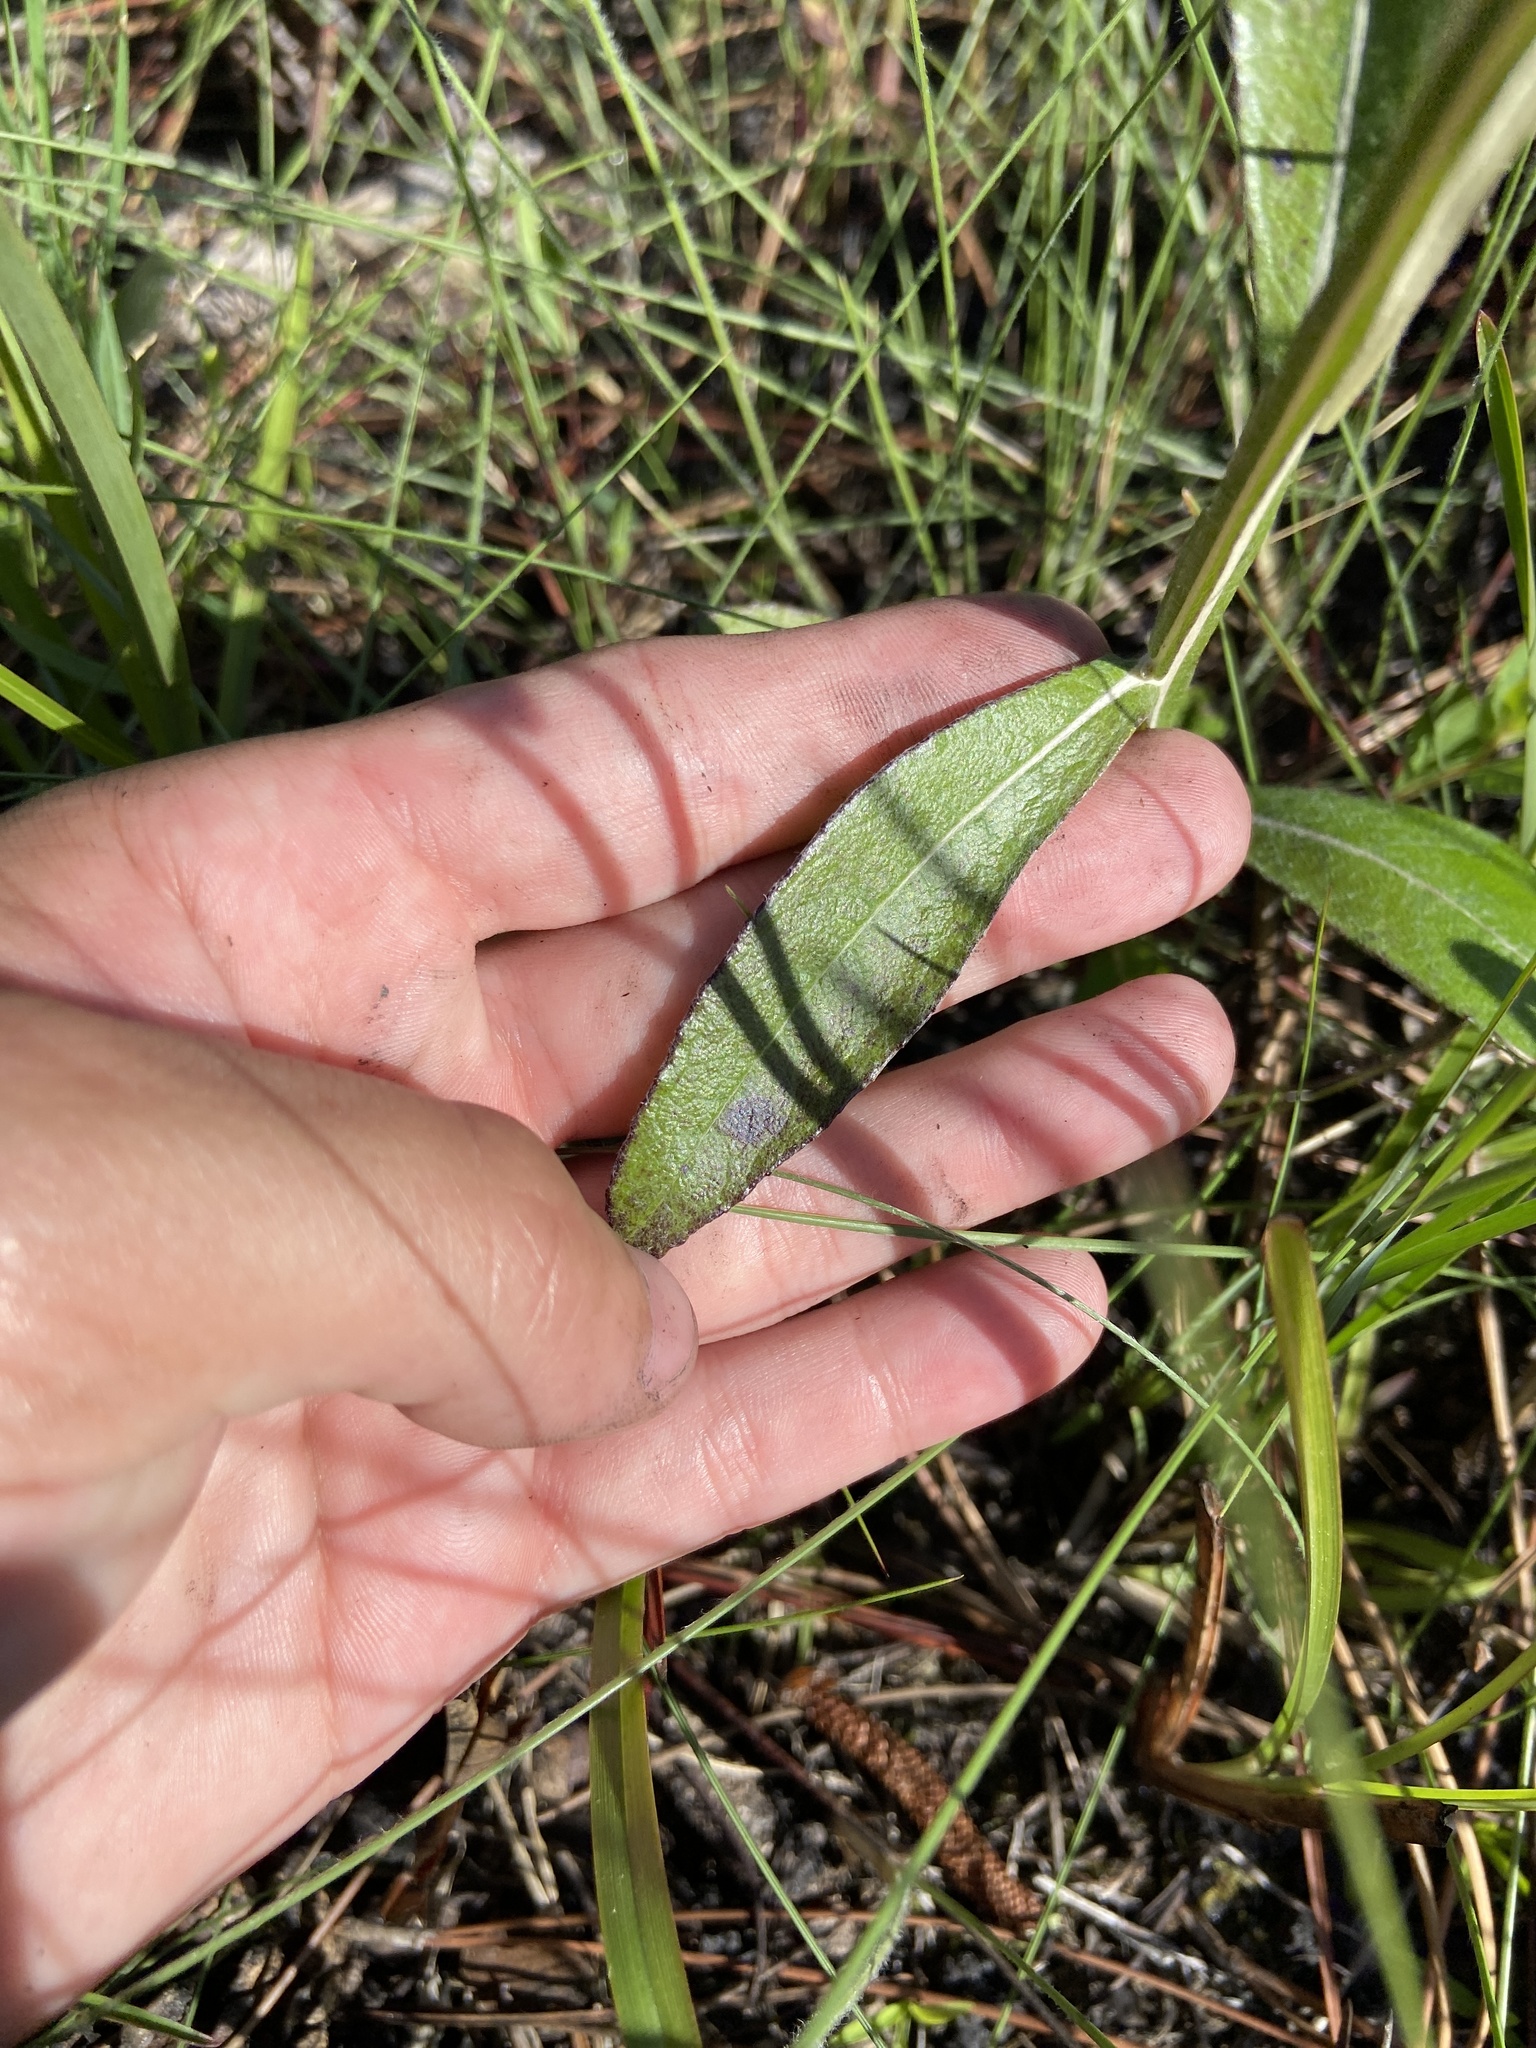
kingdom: Plantae
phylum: Tracheophyta
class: Magnoliopsida
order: Asterales
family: Asteraceae
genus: Pterocaulon
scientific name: Pterocaulon pycnostachyum
